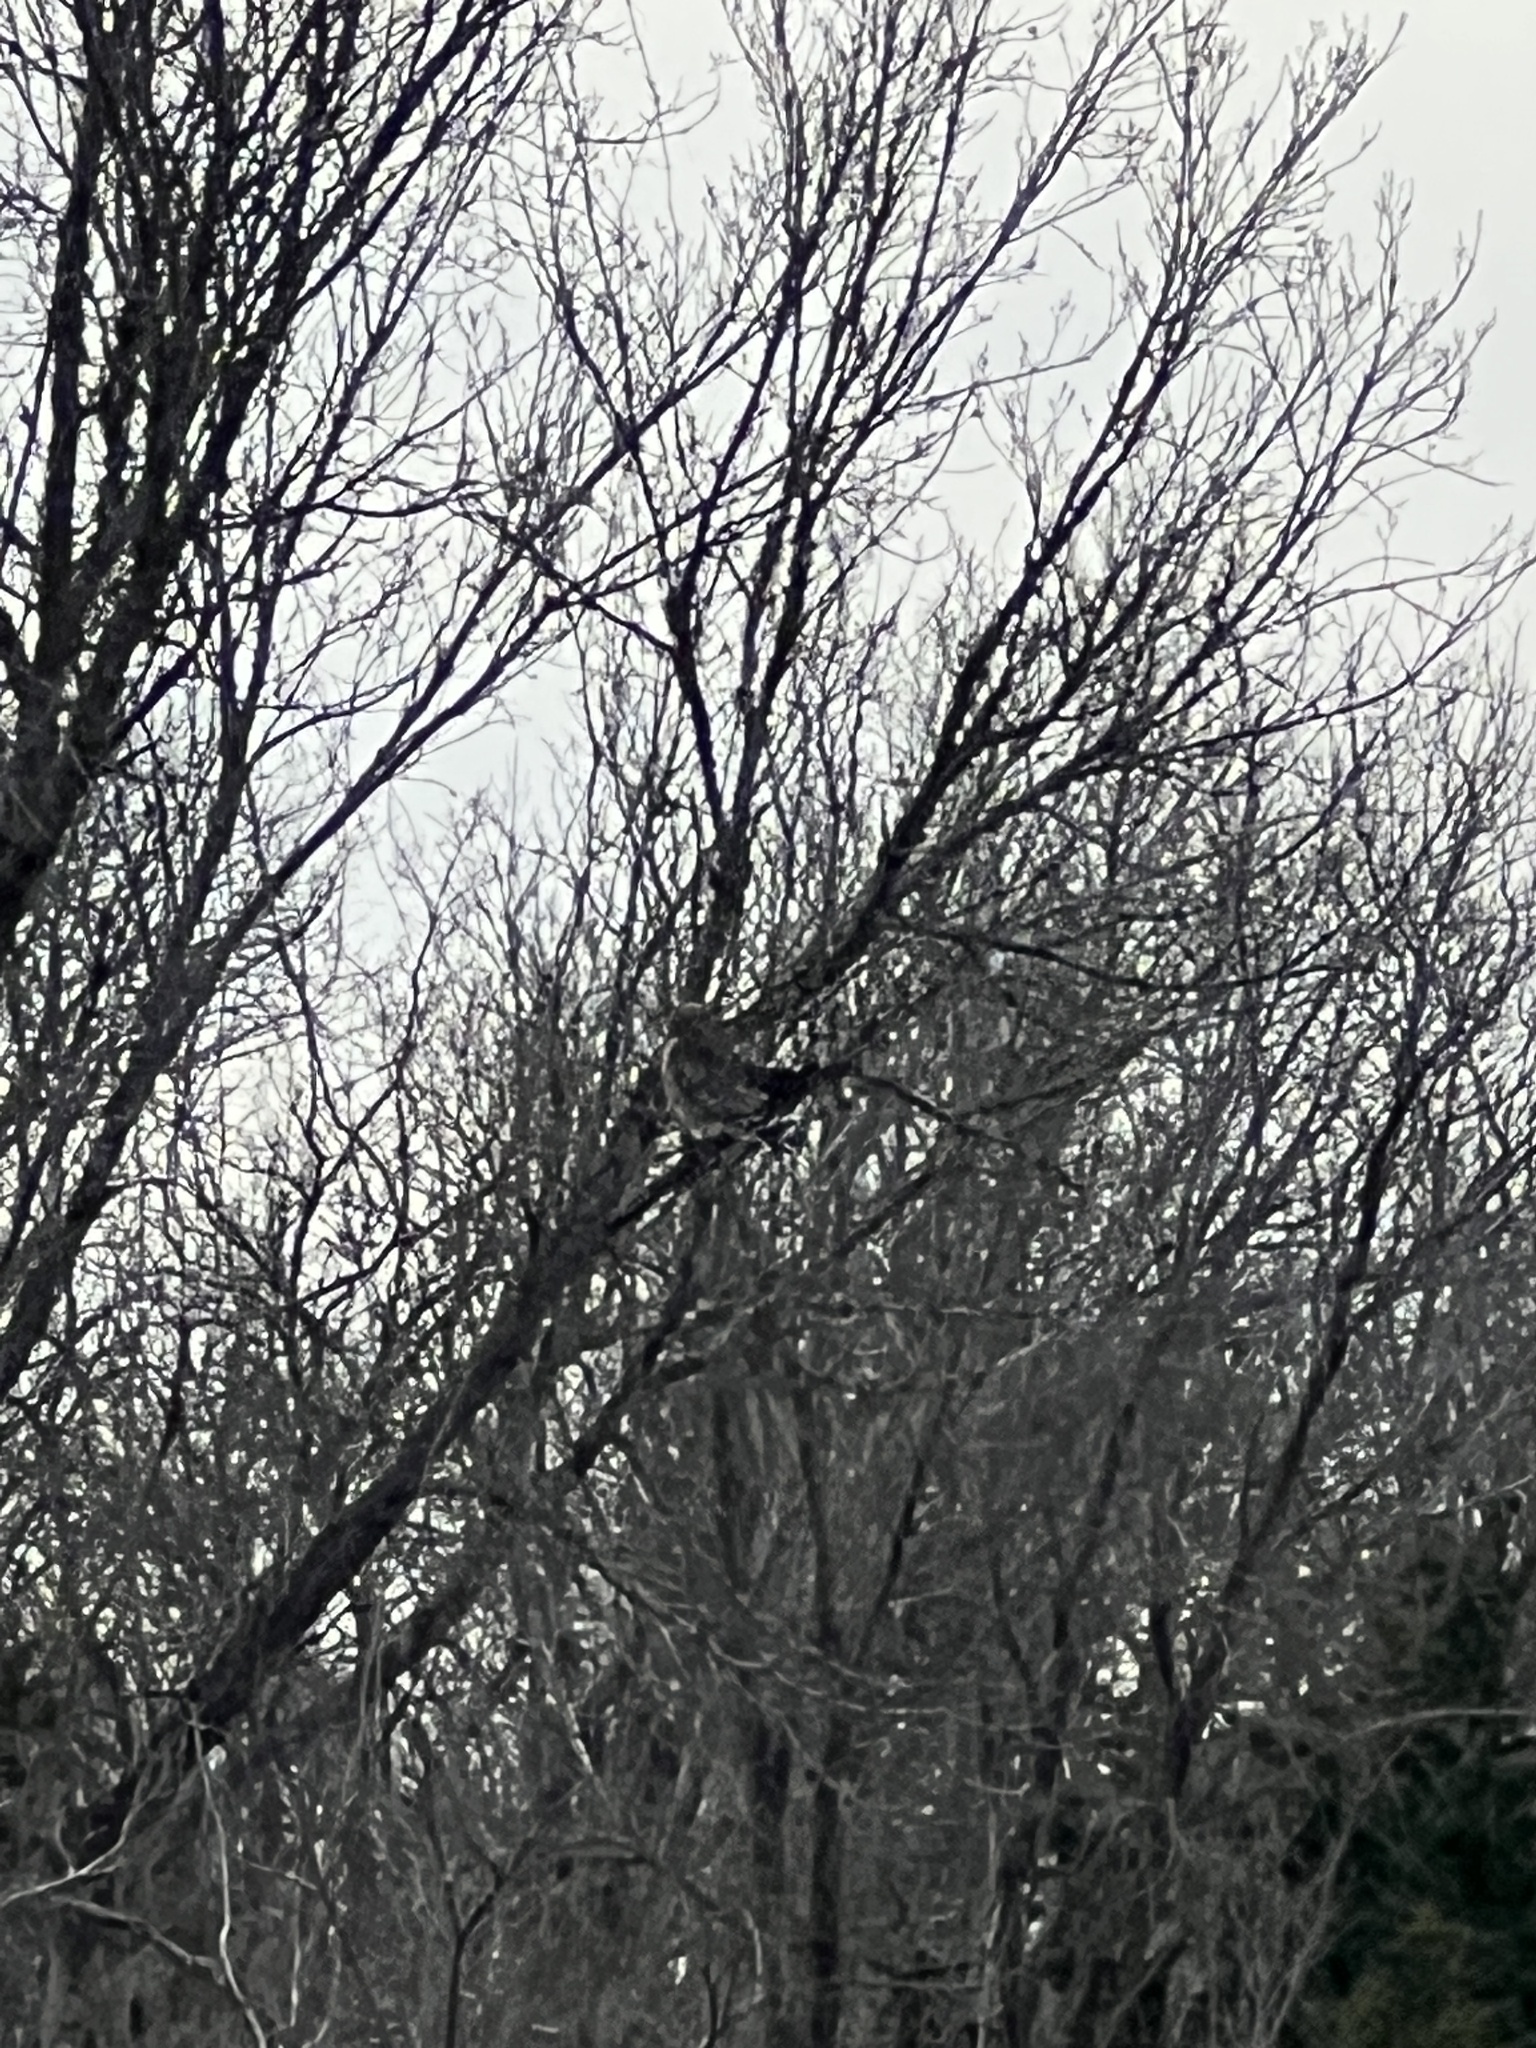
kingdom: Animalia
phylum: Chordata
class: Aves
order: Accipitriformes
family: Accipitridae
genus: Buteo
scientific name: Buteo lineatus
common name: Red-shouldered hawk
